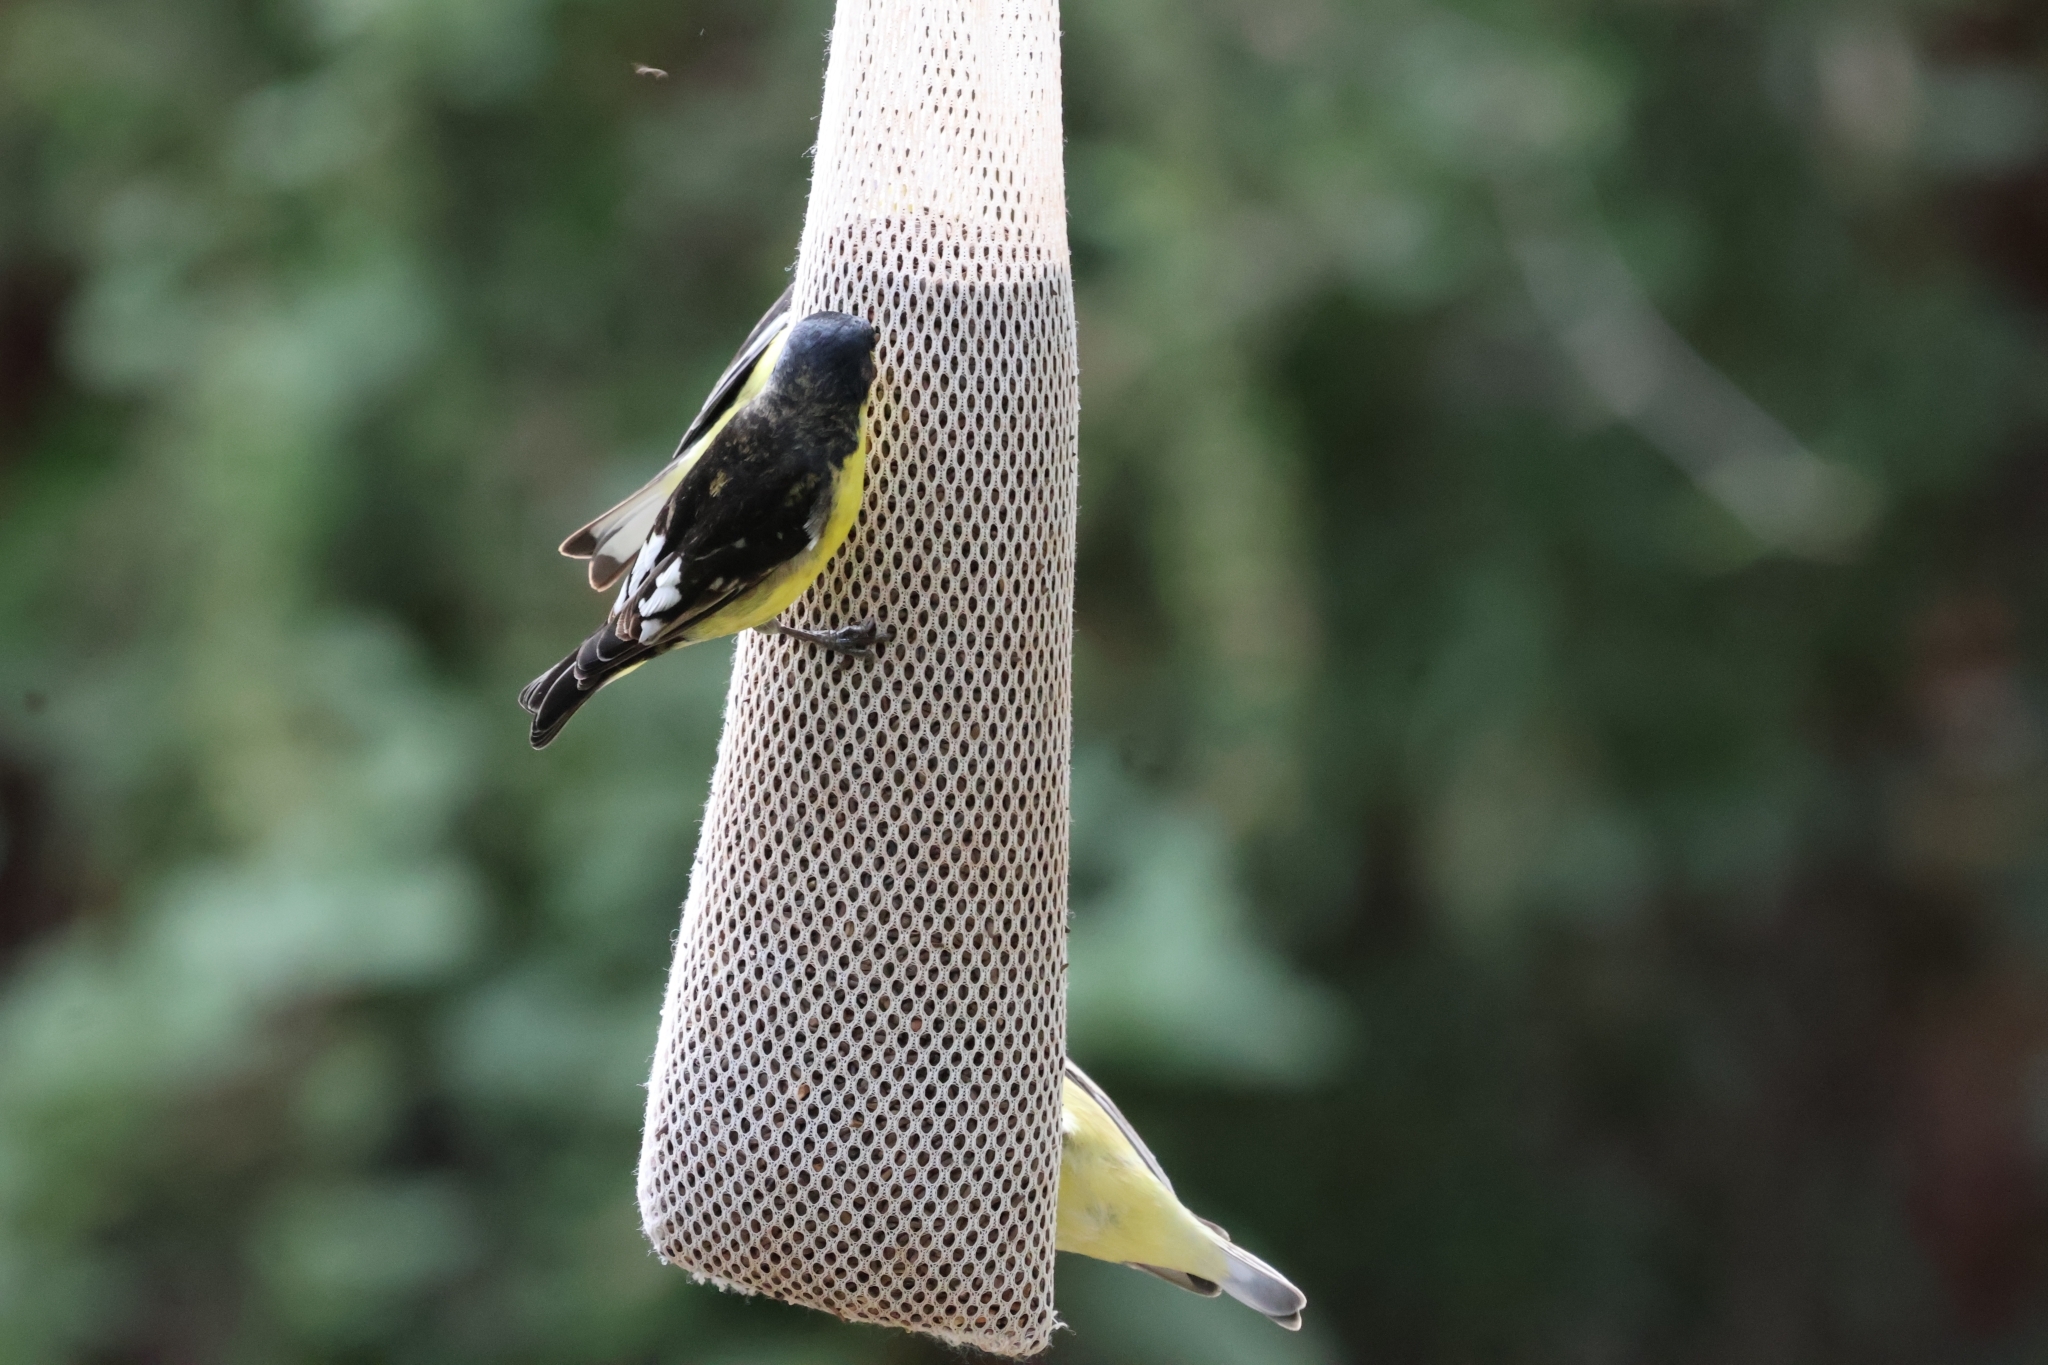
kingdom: Animalia
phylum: Chordata
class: Aves
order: Passeriformes
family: Fringillidae
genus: Spinus
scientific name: Spinus psaltria
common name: Lesser goldfinch
